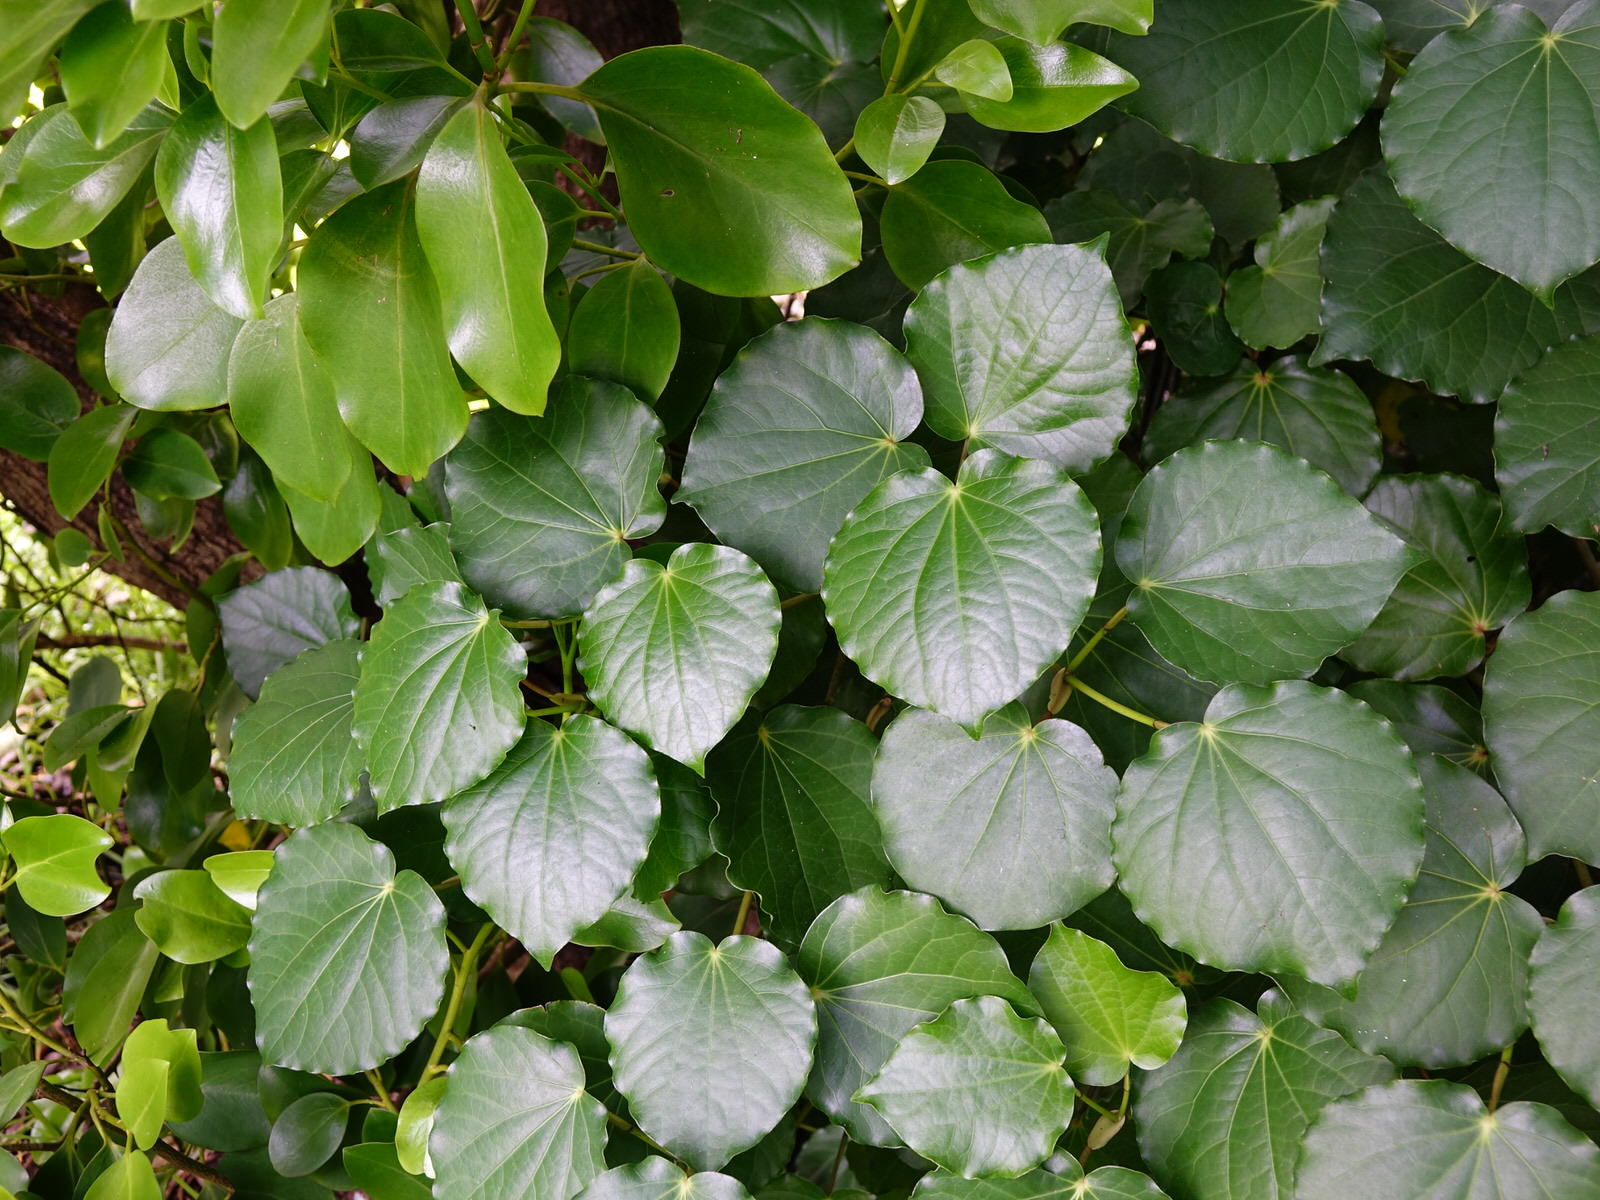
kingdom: Plantae
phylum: Tracheophyta
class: Magnoliopsida
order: Piperales
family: Piperaceae
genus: Macropiper
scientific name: Macropiper excelsum
